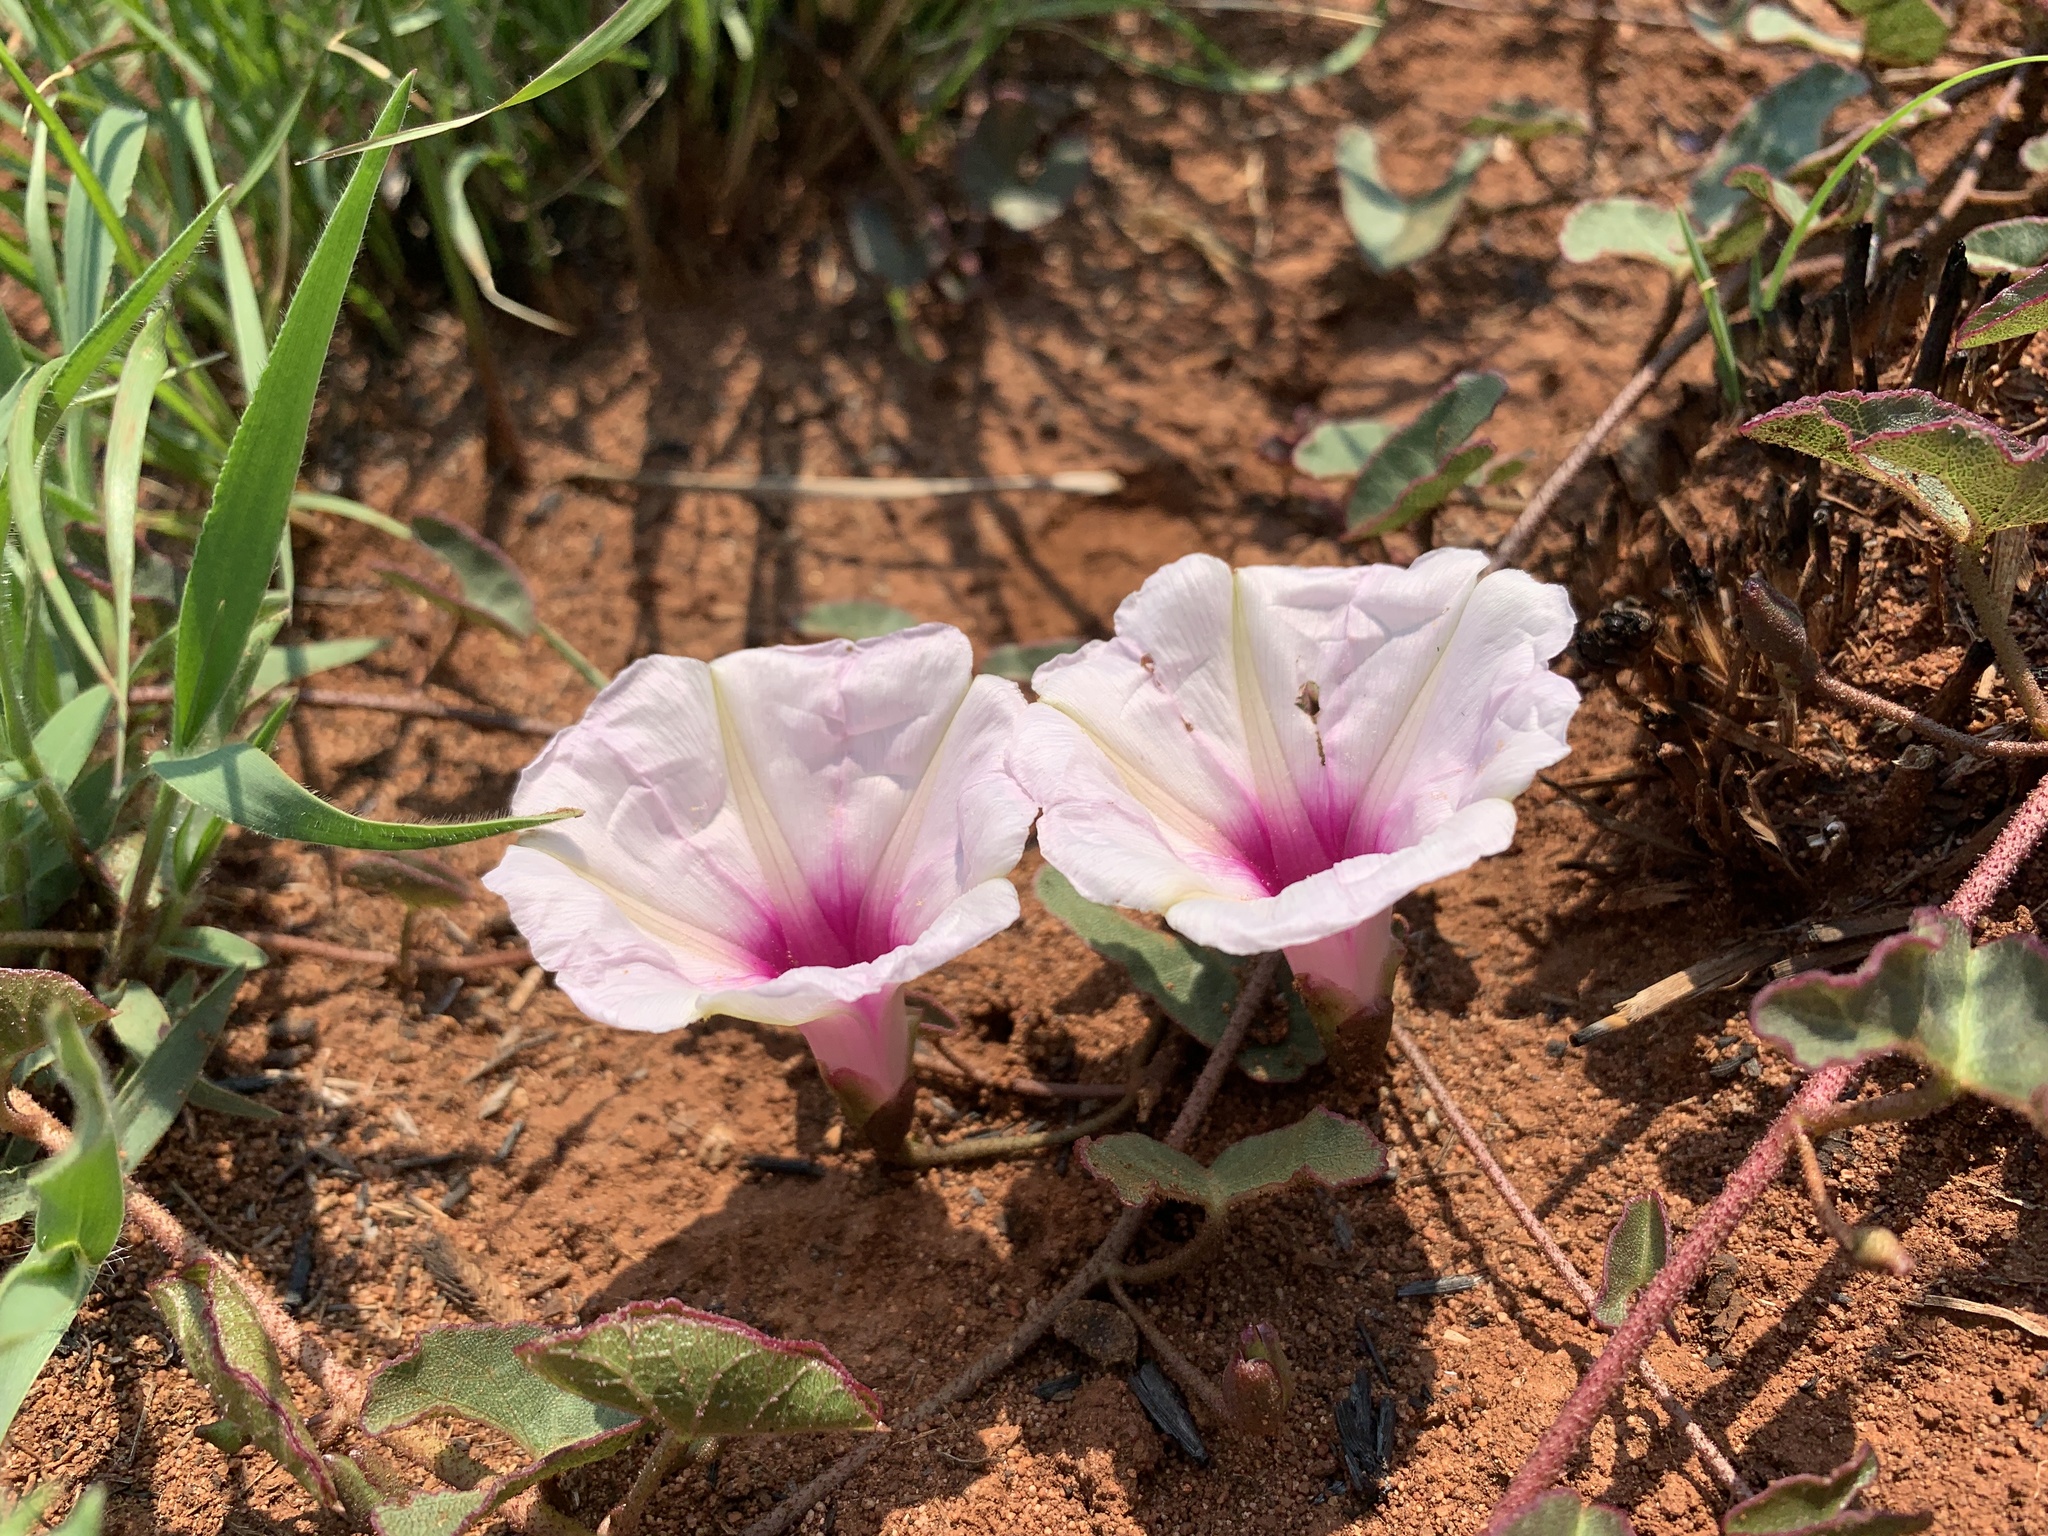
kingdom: Plantae
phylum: Tracheophyta
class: Magnoliopsida
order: Solanales
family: Convolvulaceae
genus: Ipomoea
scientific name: Ipomoea bathycolpos
